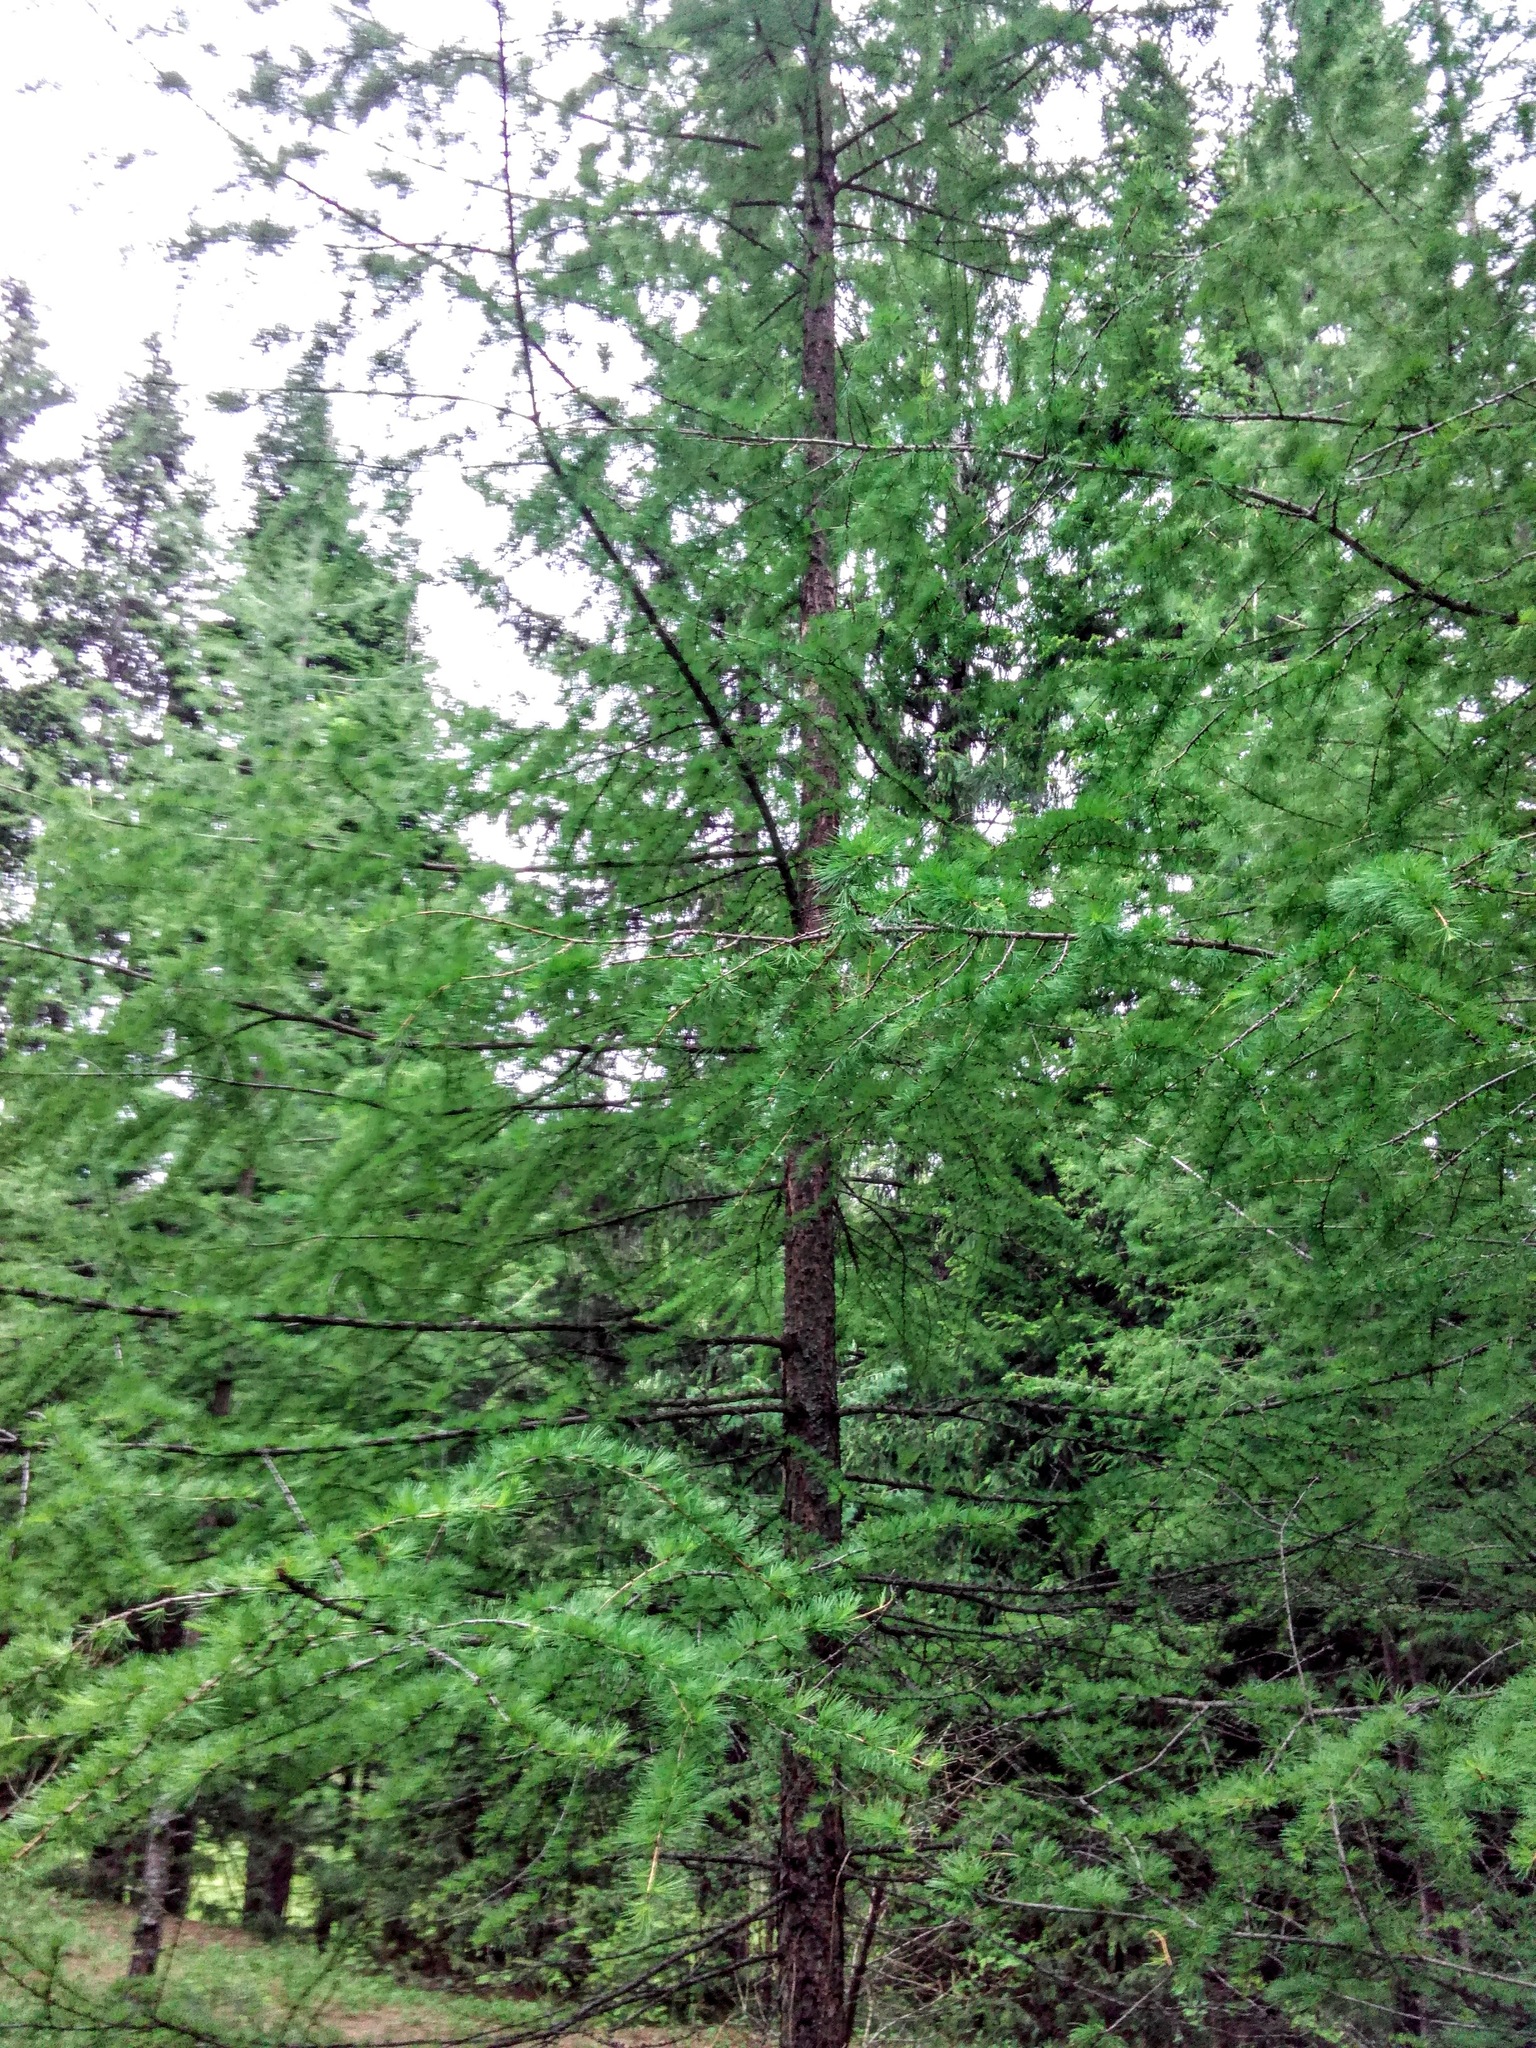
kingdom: Plantae
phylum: Tracheophyta
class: Pinopsida
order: Pinales
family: Pinaceae
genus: Larix
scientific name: Larix sibirica
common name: Siberian larch
